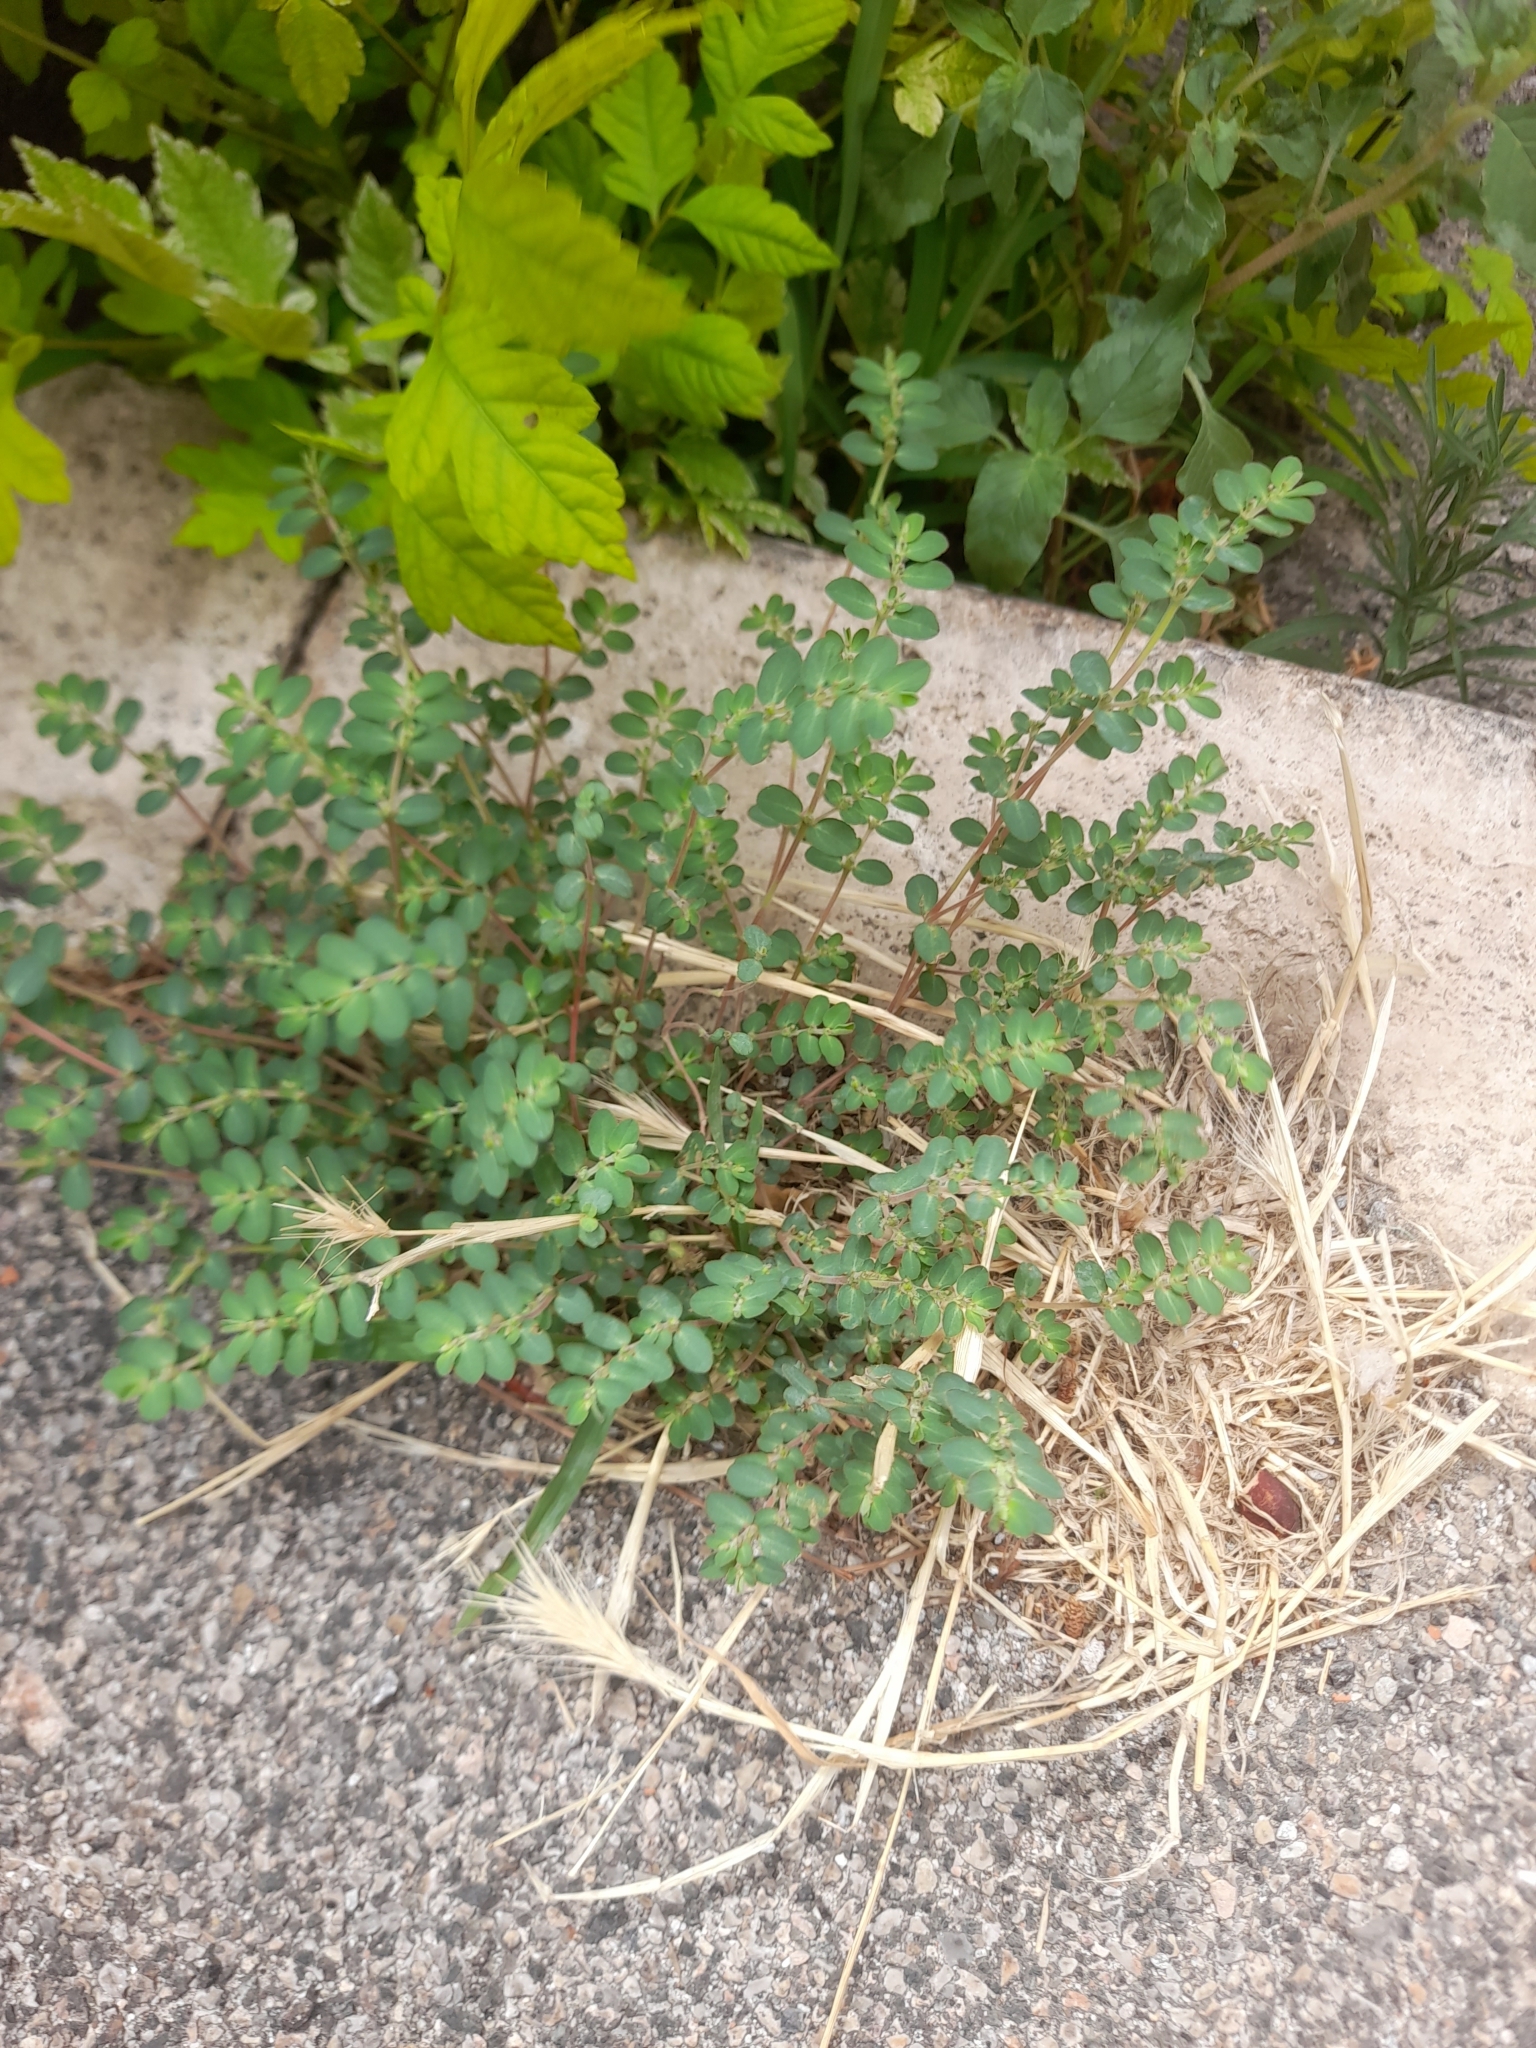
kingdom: Plantae
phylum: Tracheophyta
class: Magnoliopsida
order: Malpighiales
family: Euphorbiaceae
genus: Euphorbia
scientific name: Euphorbia prostrata
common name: Prostrate sandmat
